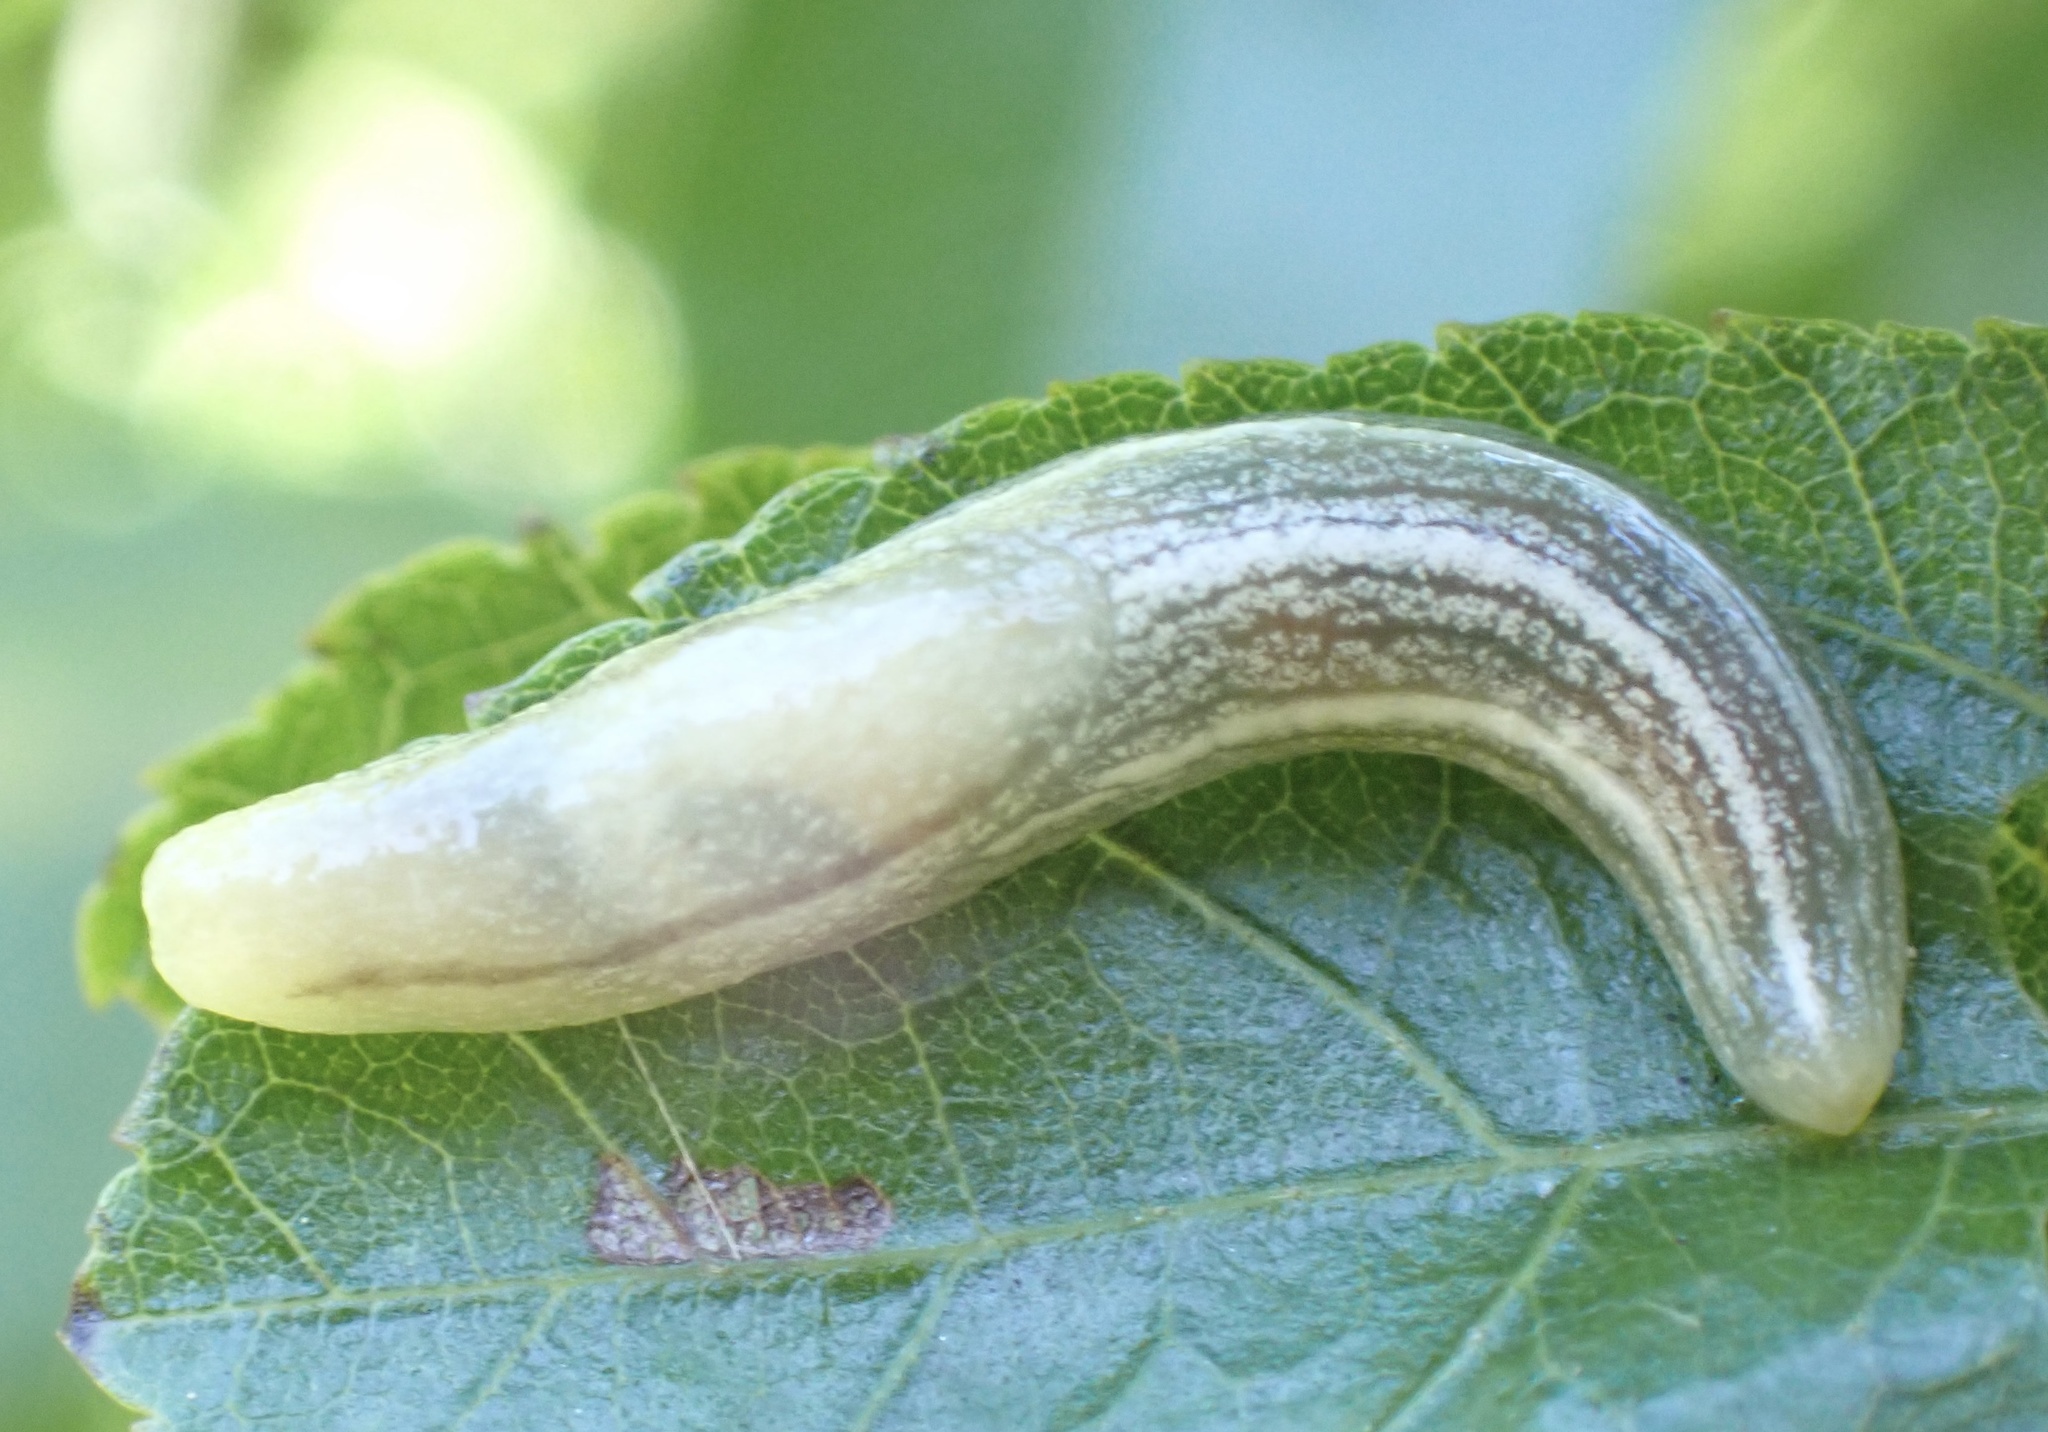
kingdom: Animalia
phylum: Mollusca
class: Gastropoda
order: Stylommatophora
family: Urocyclidae
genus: Elisolimax
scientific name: Elisolimax flavescens
